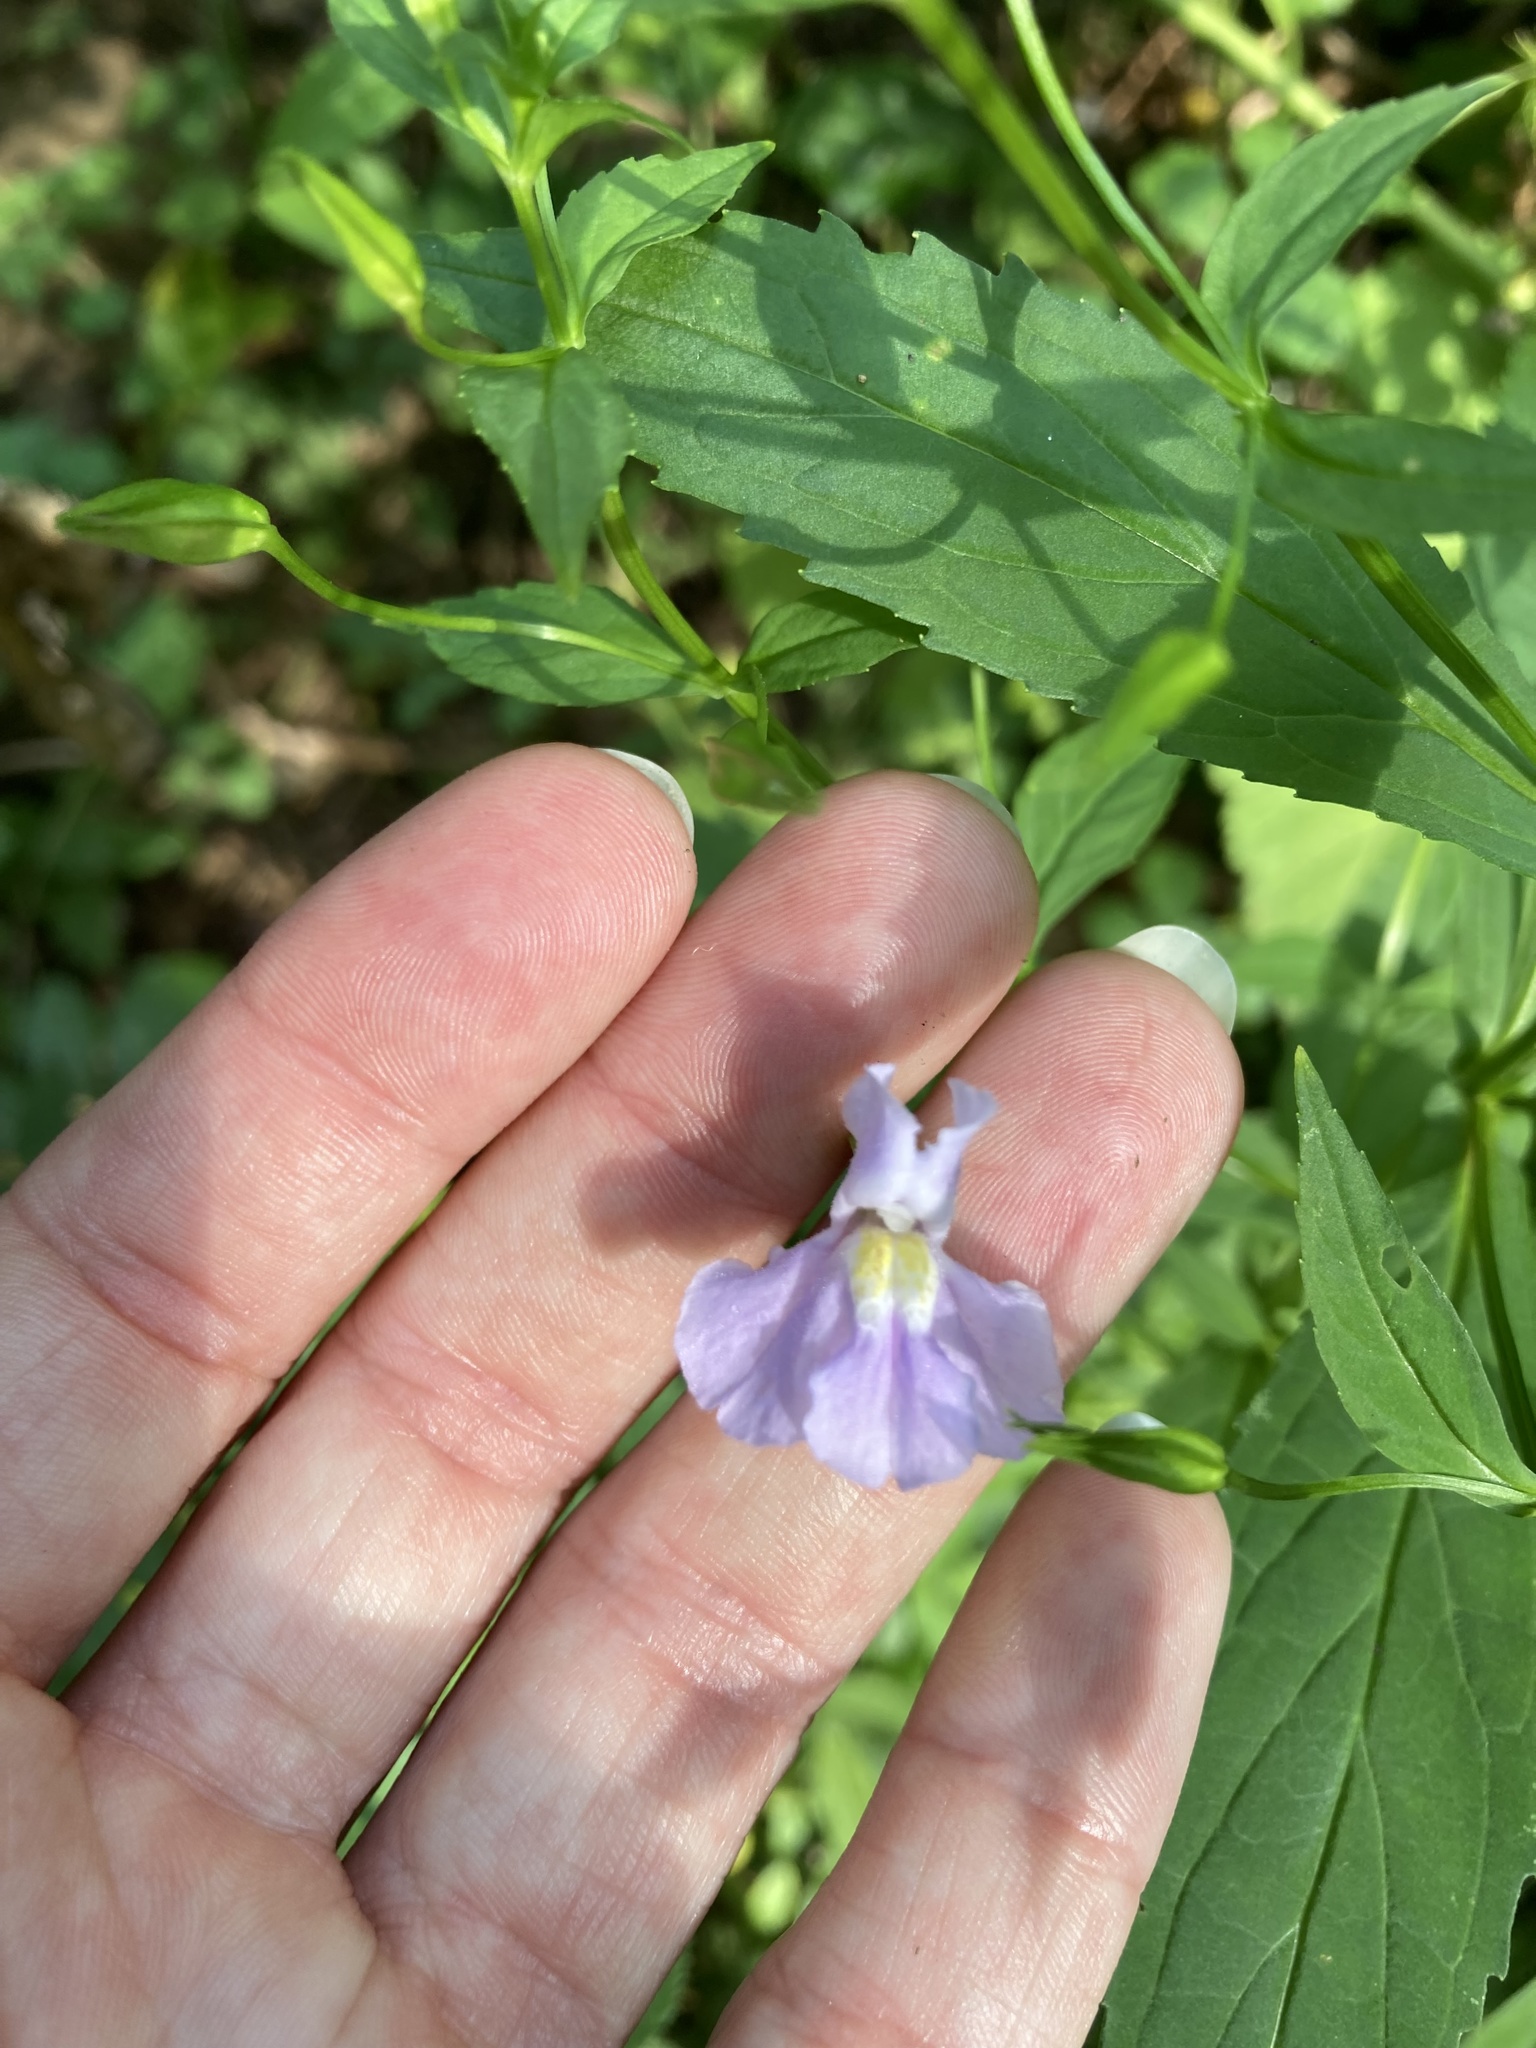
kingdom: Plantae
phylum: Tracheophyta
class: Magnoliopsida
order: Lamiales
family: Phrymaceae
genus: Mimulus
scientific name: Mimulus ringens
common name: Allegheny monkeyflower
